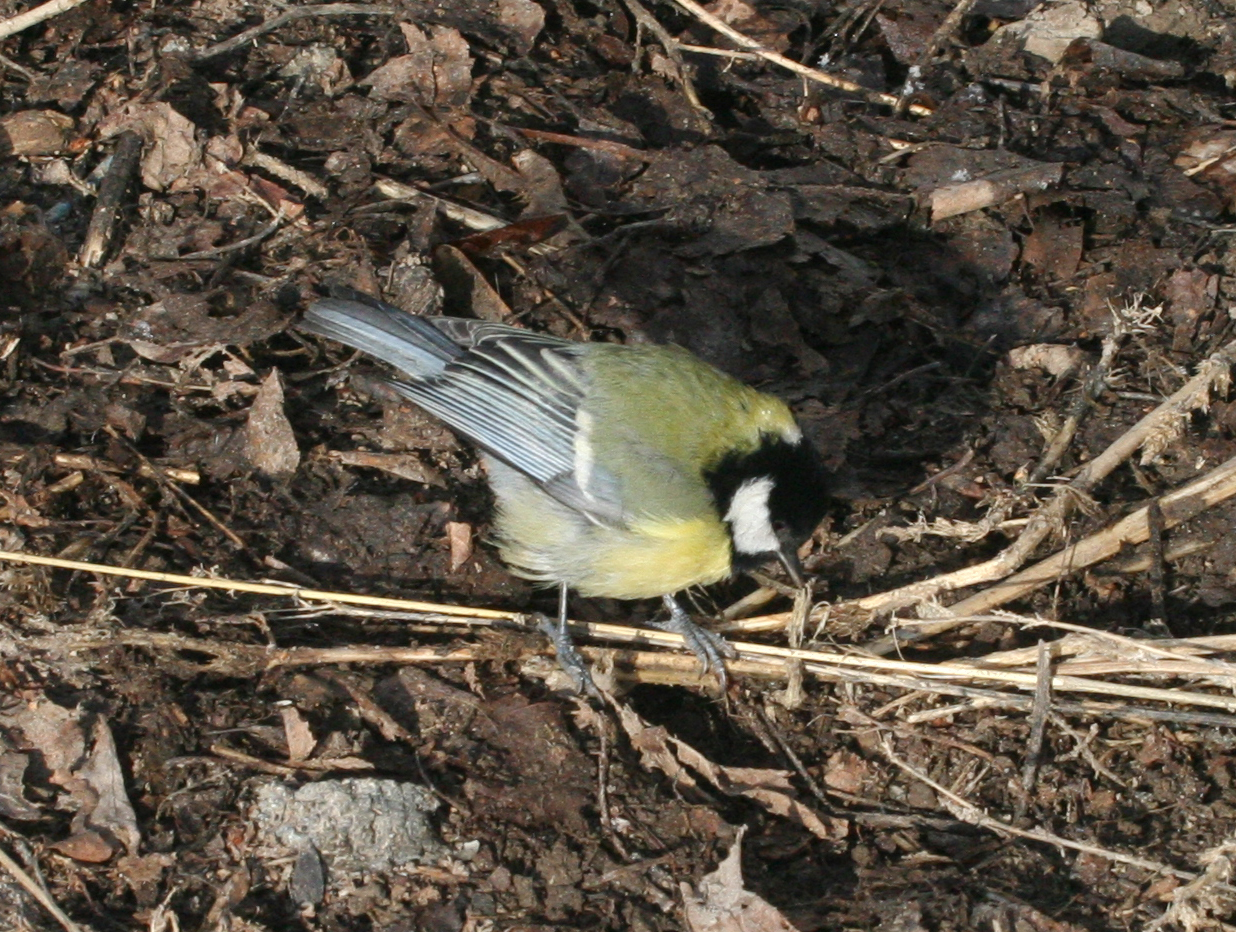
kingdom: Animalia
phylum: Chordata
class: Aves
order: Passeriformes
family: Paridae
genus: Parus
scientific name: Parus major
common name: Great tit
